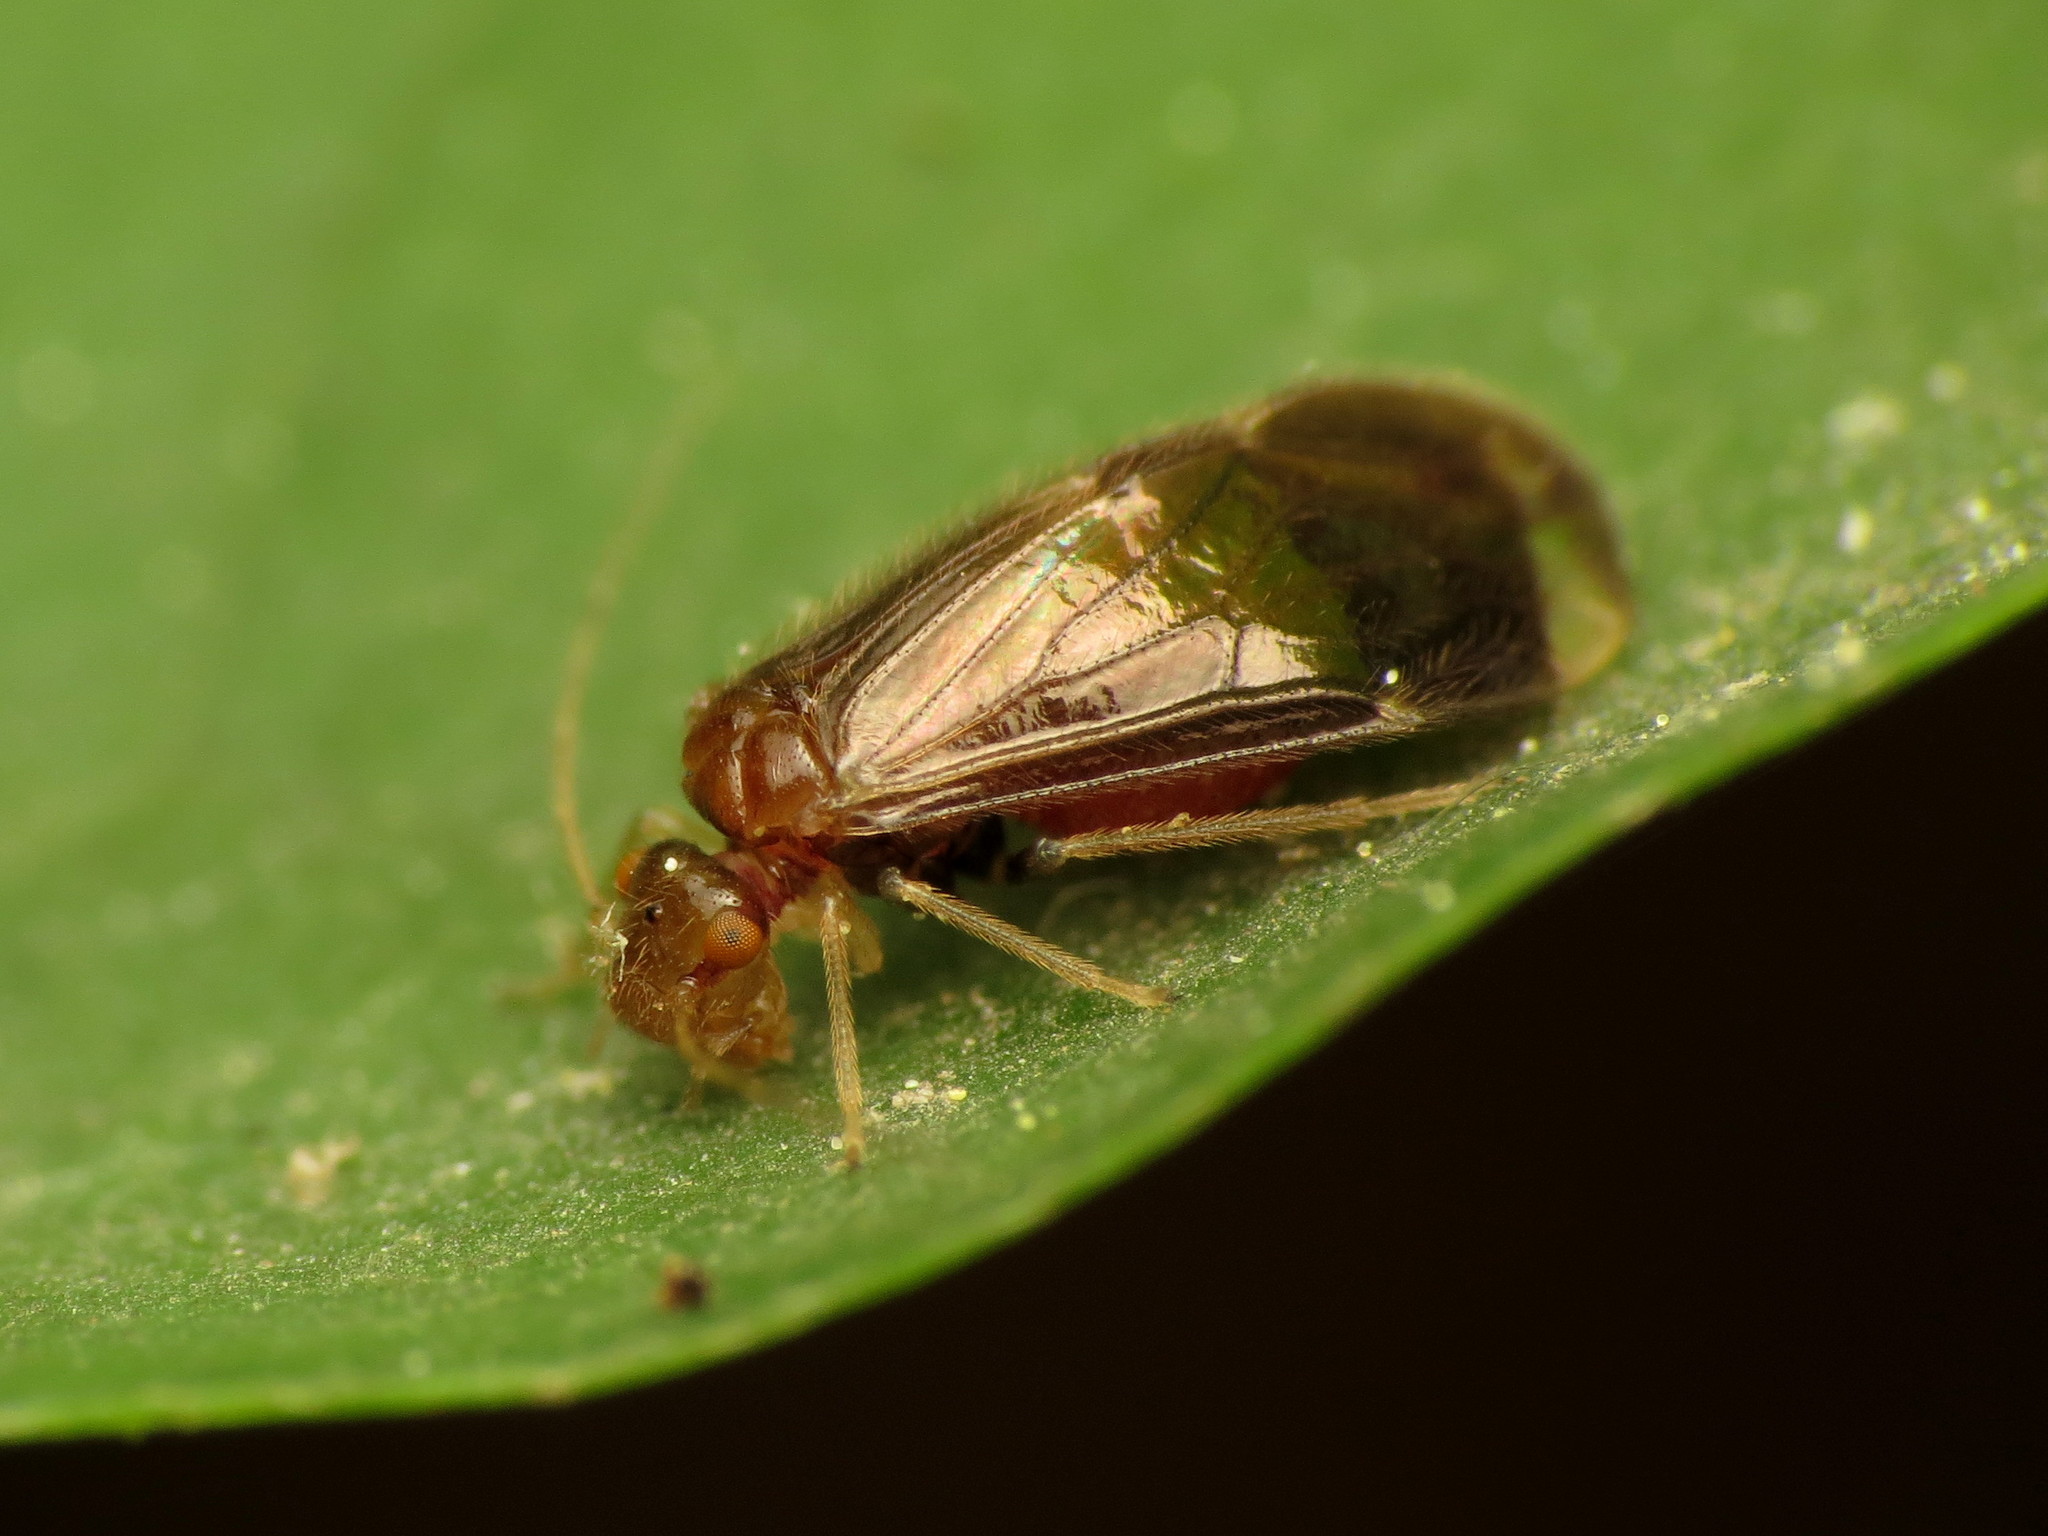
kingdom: Animalia
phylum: Arthropoda
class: Insecta
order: Psocodea
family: Amphipsocidae
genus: Polypsocus
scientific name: Polypsocus corruptus
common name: Corrupt barklouse
